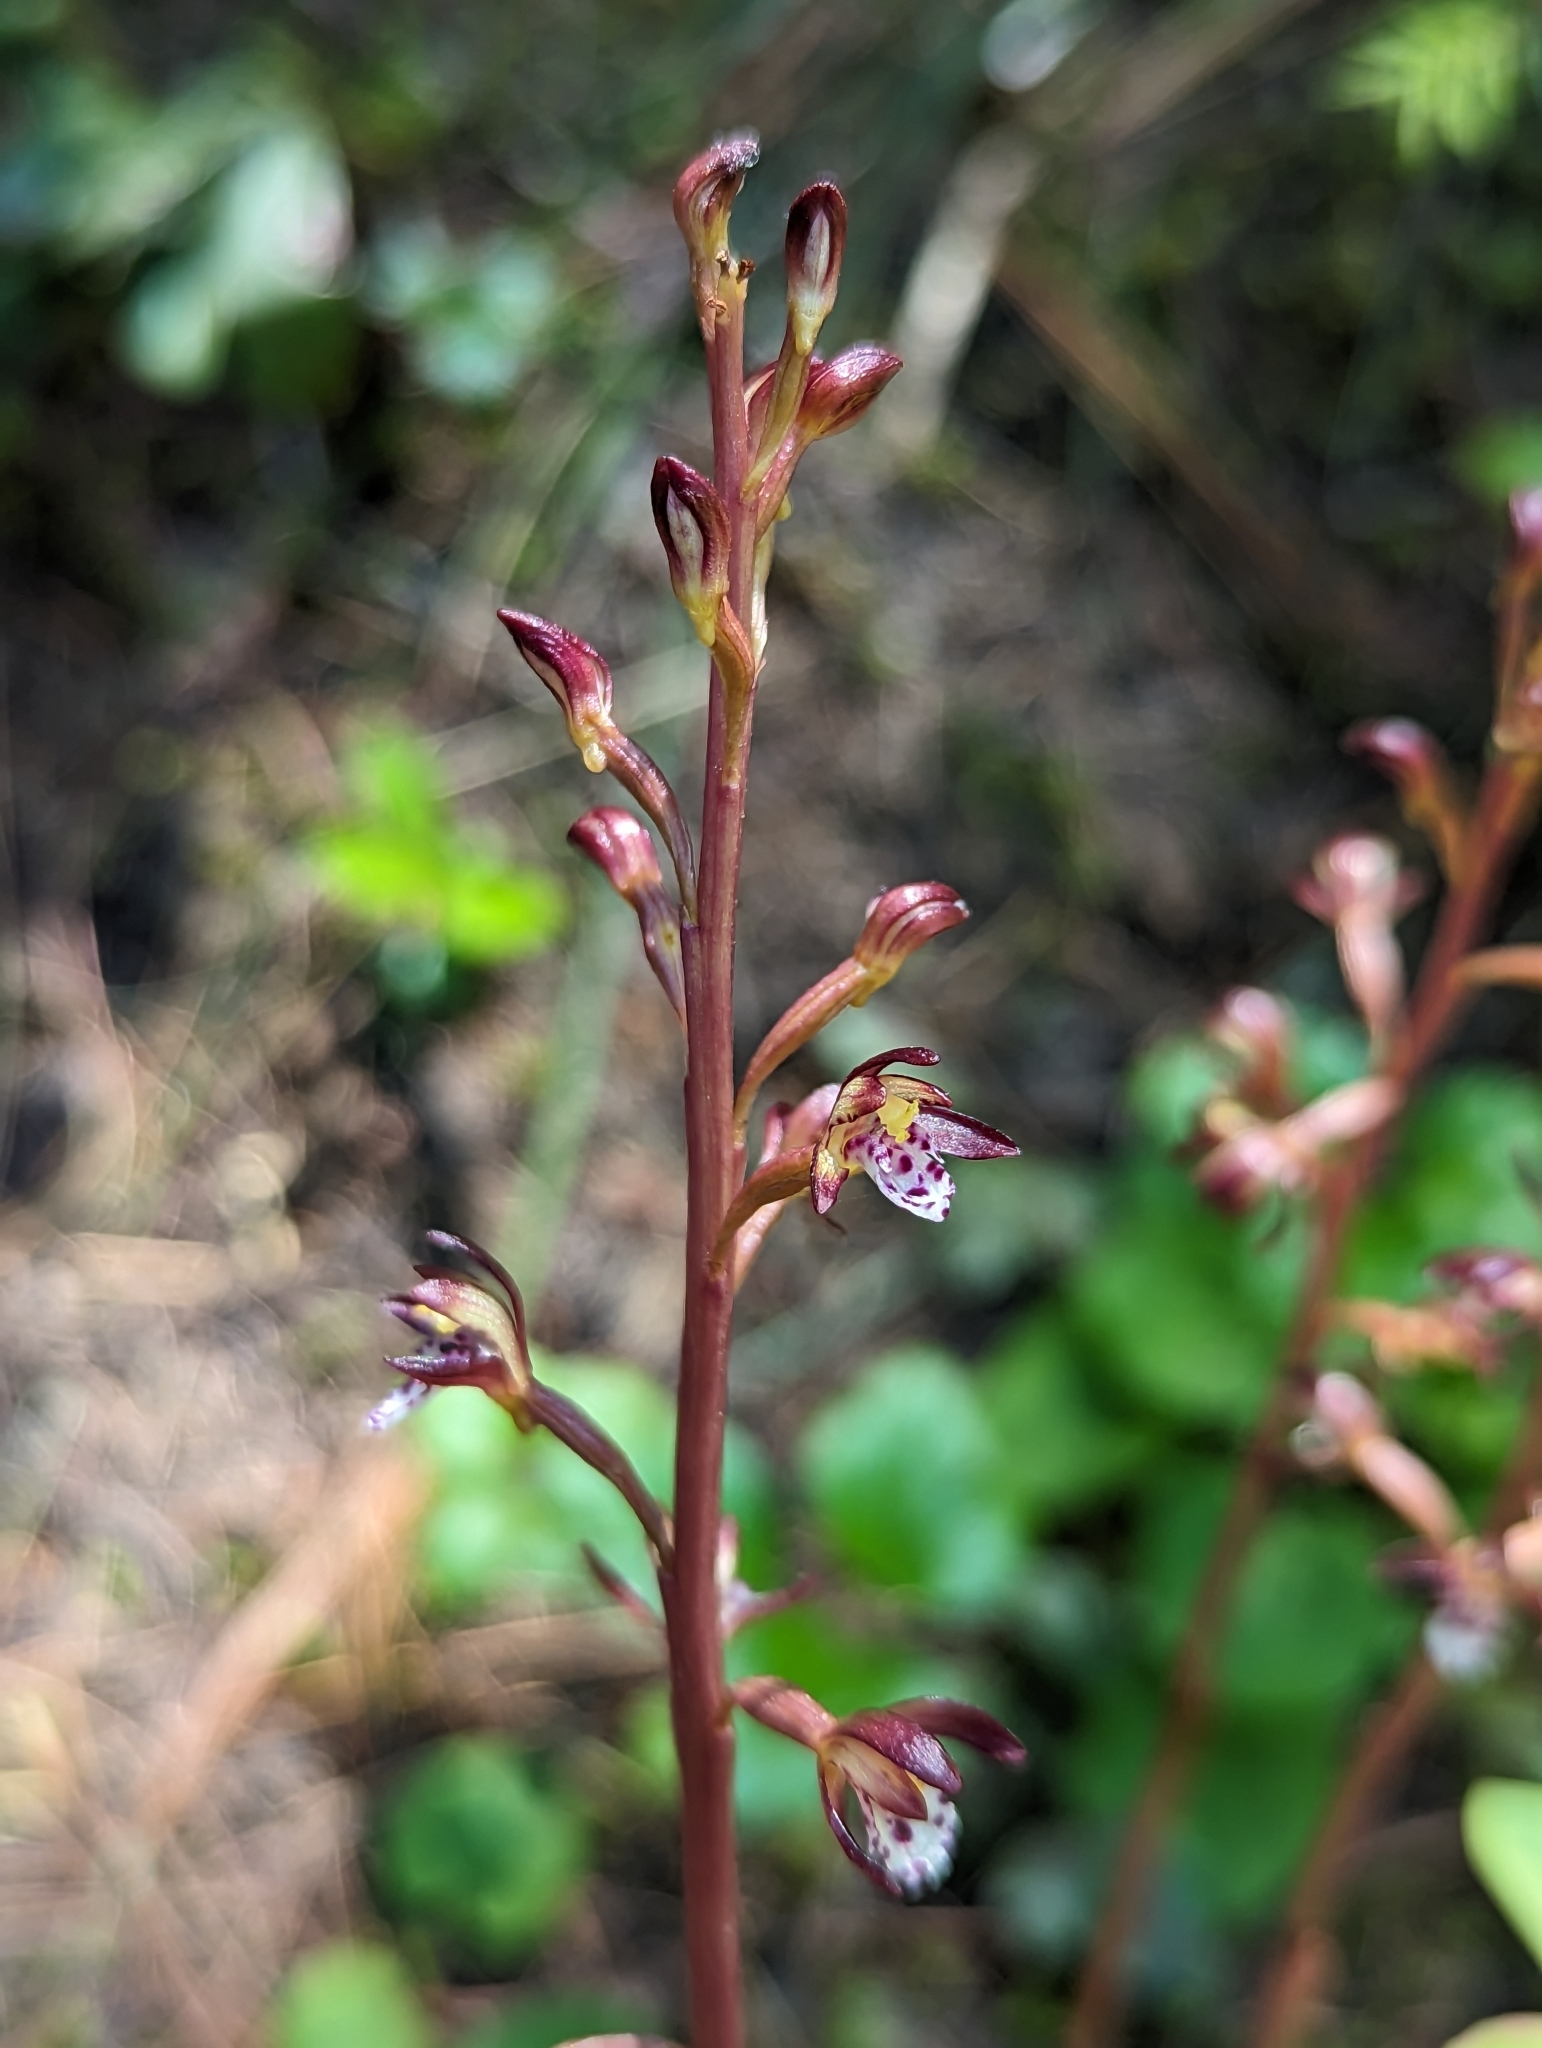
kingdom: Plantae
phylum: Tracheophyta
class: Liliopsida
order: Asparagales
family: Orchidaceae
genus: Corallorhiza
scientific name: Corallorhiza maculata
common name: Spotted coralroot
